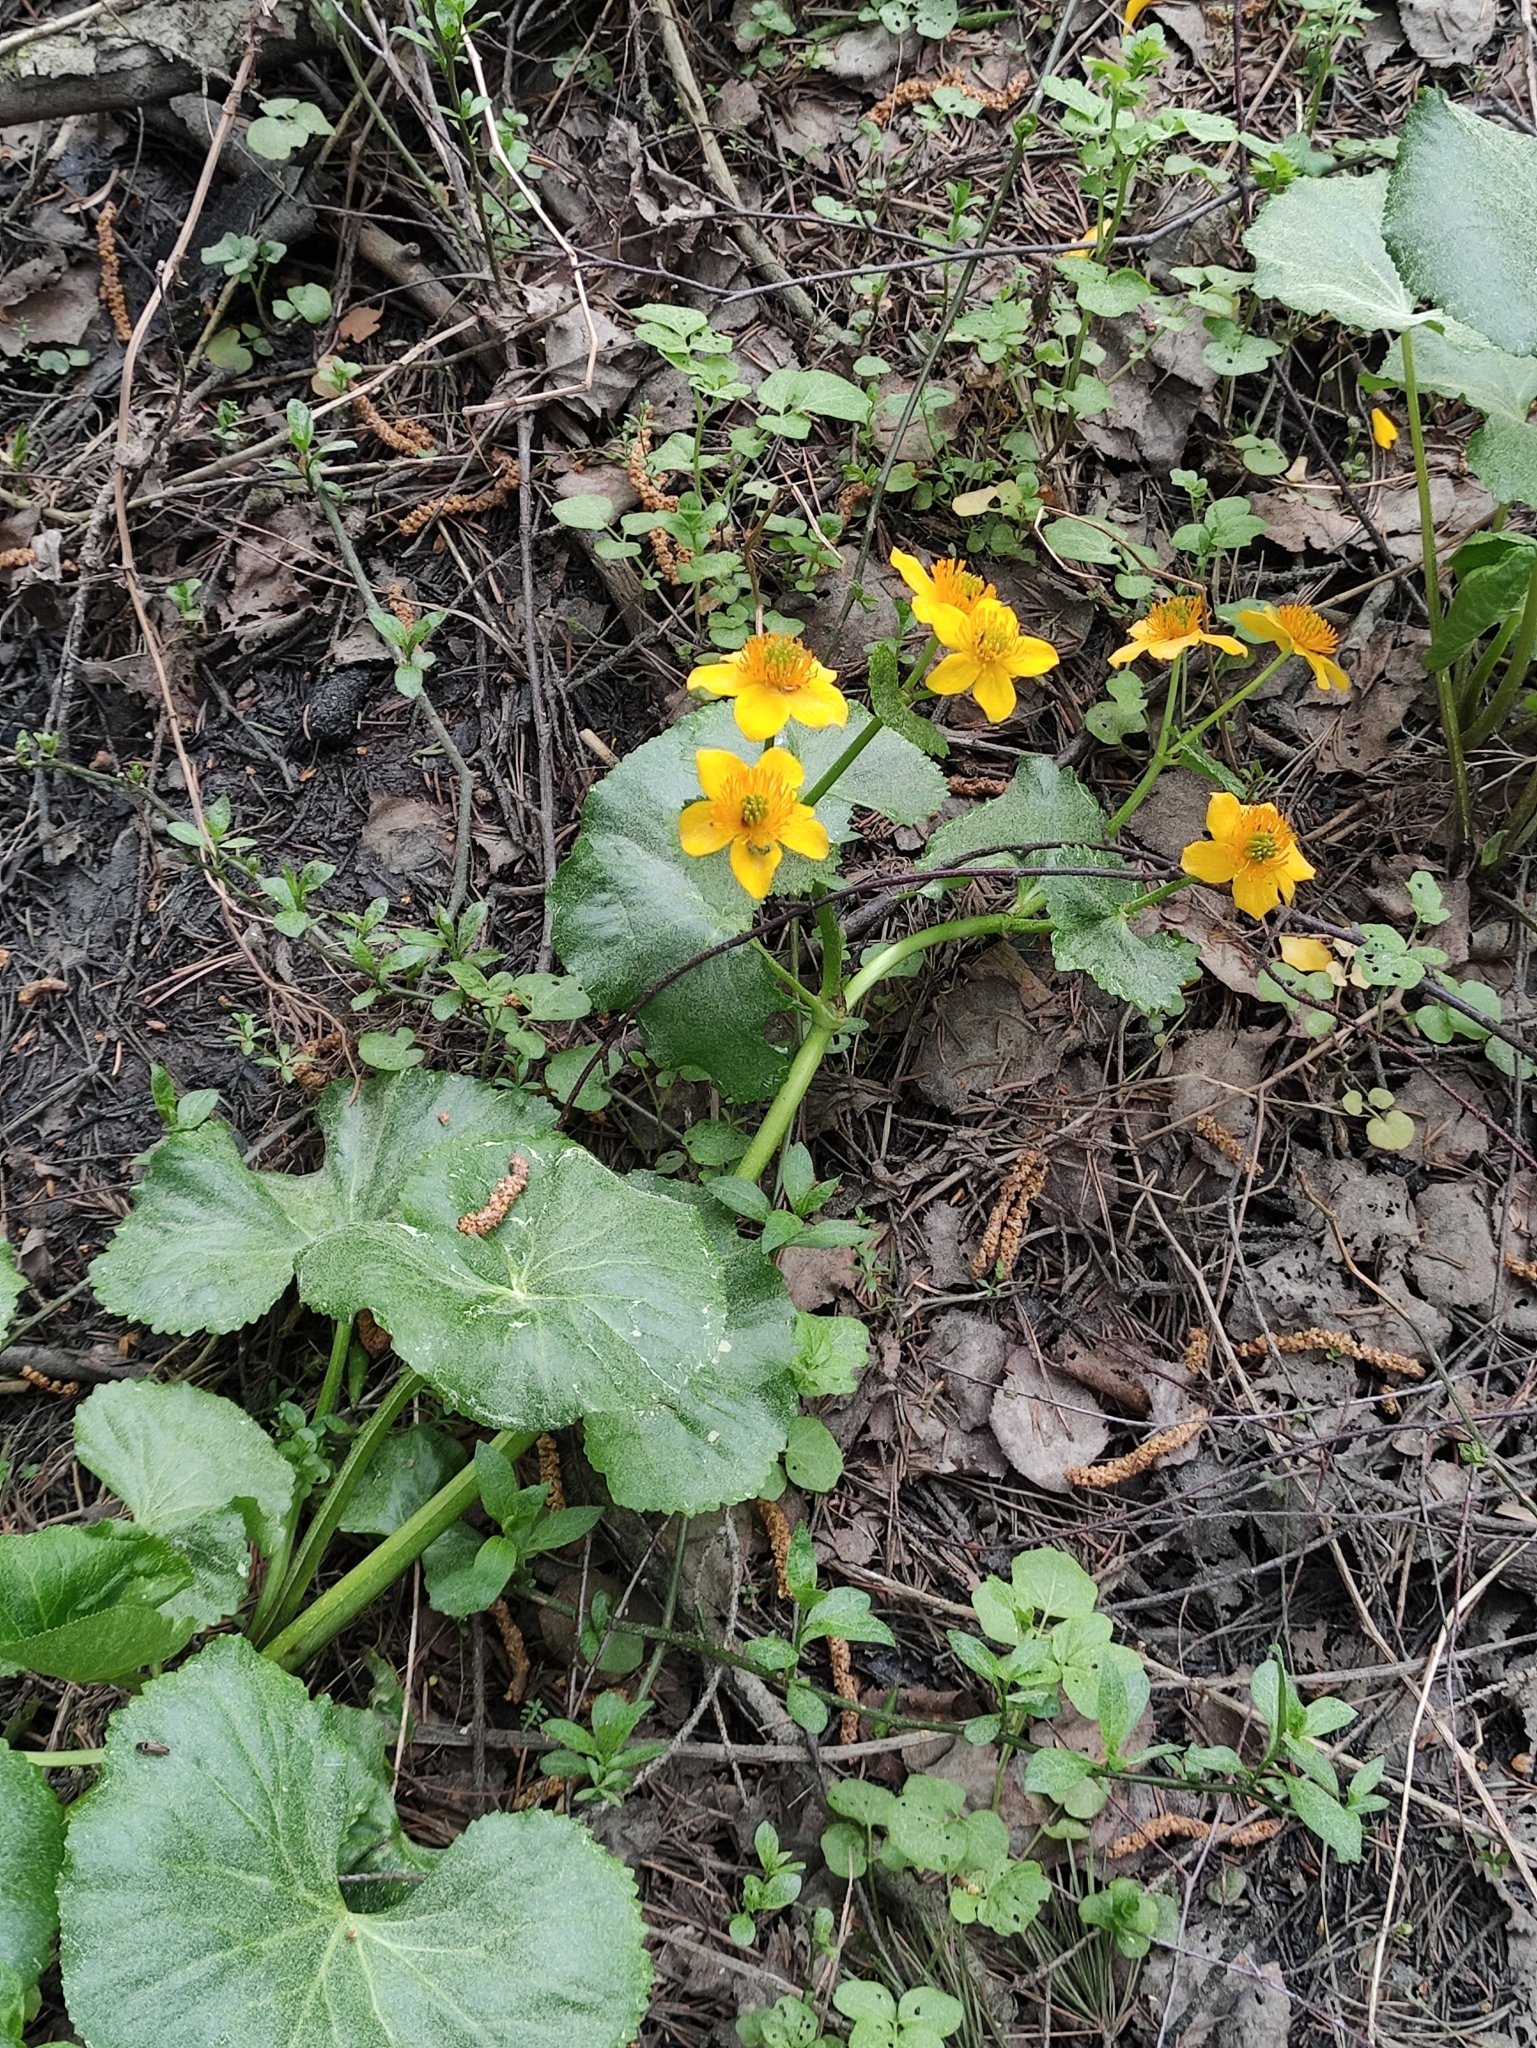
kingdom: Plantae
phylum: Tracheophyta
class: Magnoliopsida
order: Ranunculales
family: Ranunculaceae
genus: Caltha
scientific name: Caltha palustris
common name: Marsh marigold
